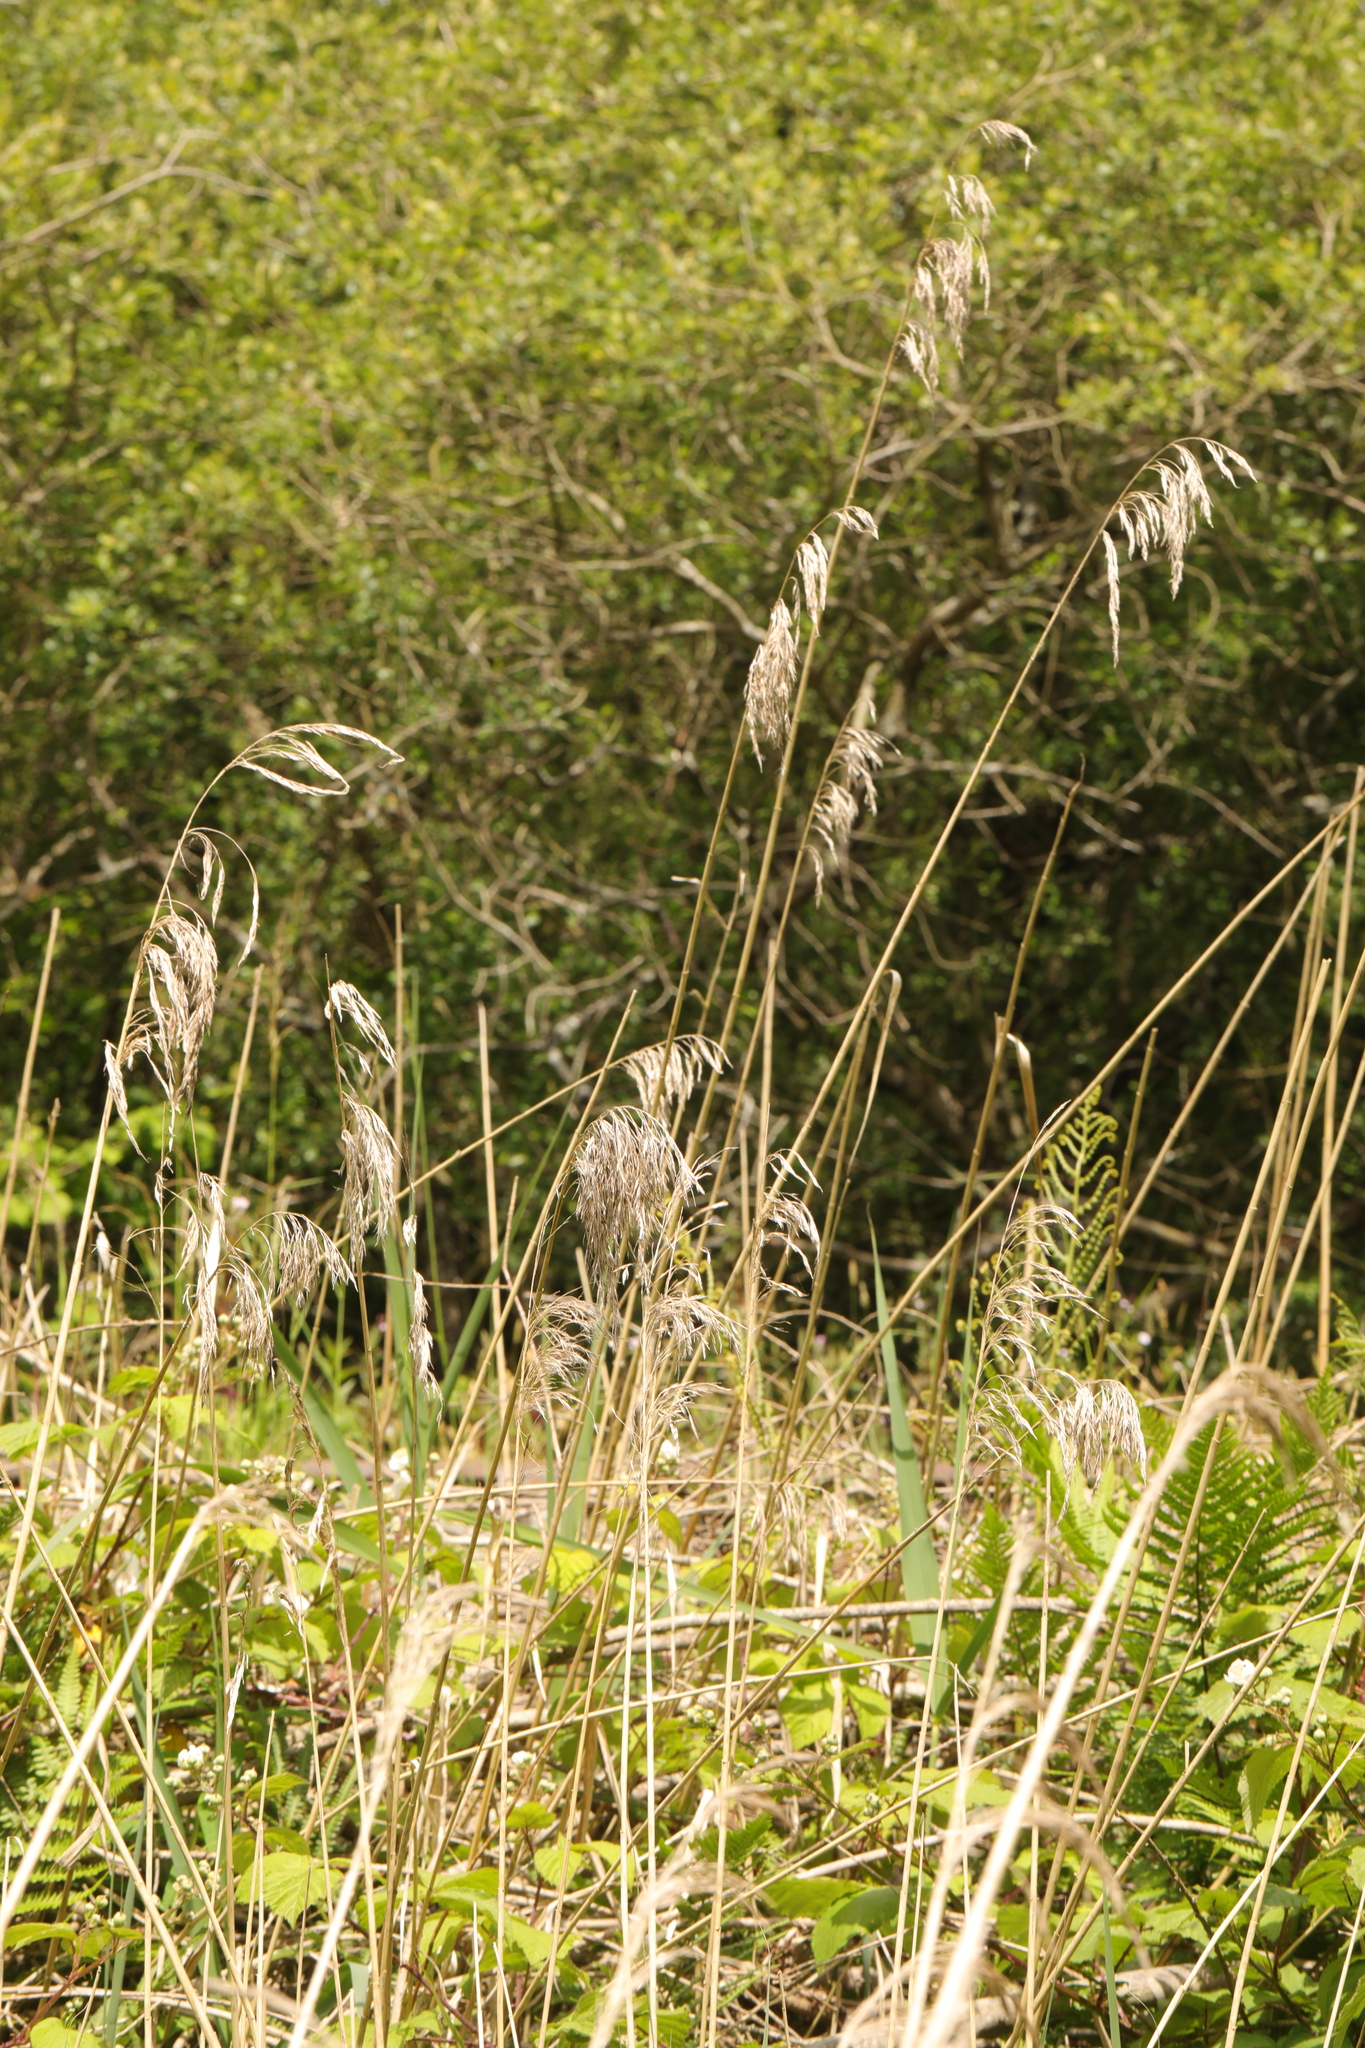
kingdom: Plantae
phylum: Tracheophyta
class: Liliopsida
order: Poales
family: Poaceae
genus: Phragmites
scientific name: Phragmites australis
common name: Common reed
